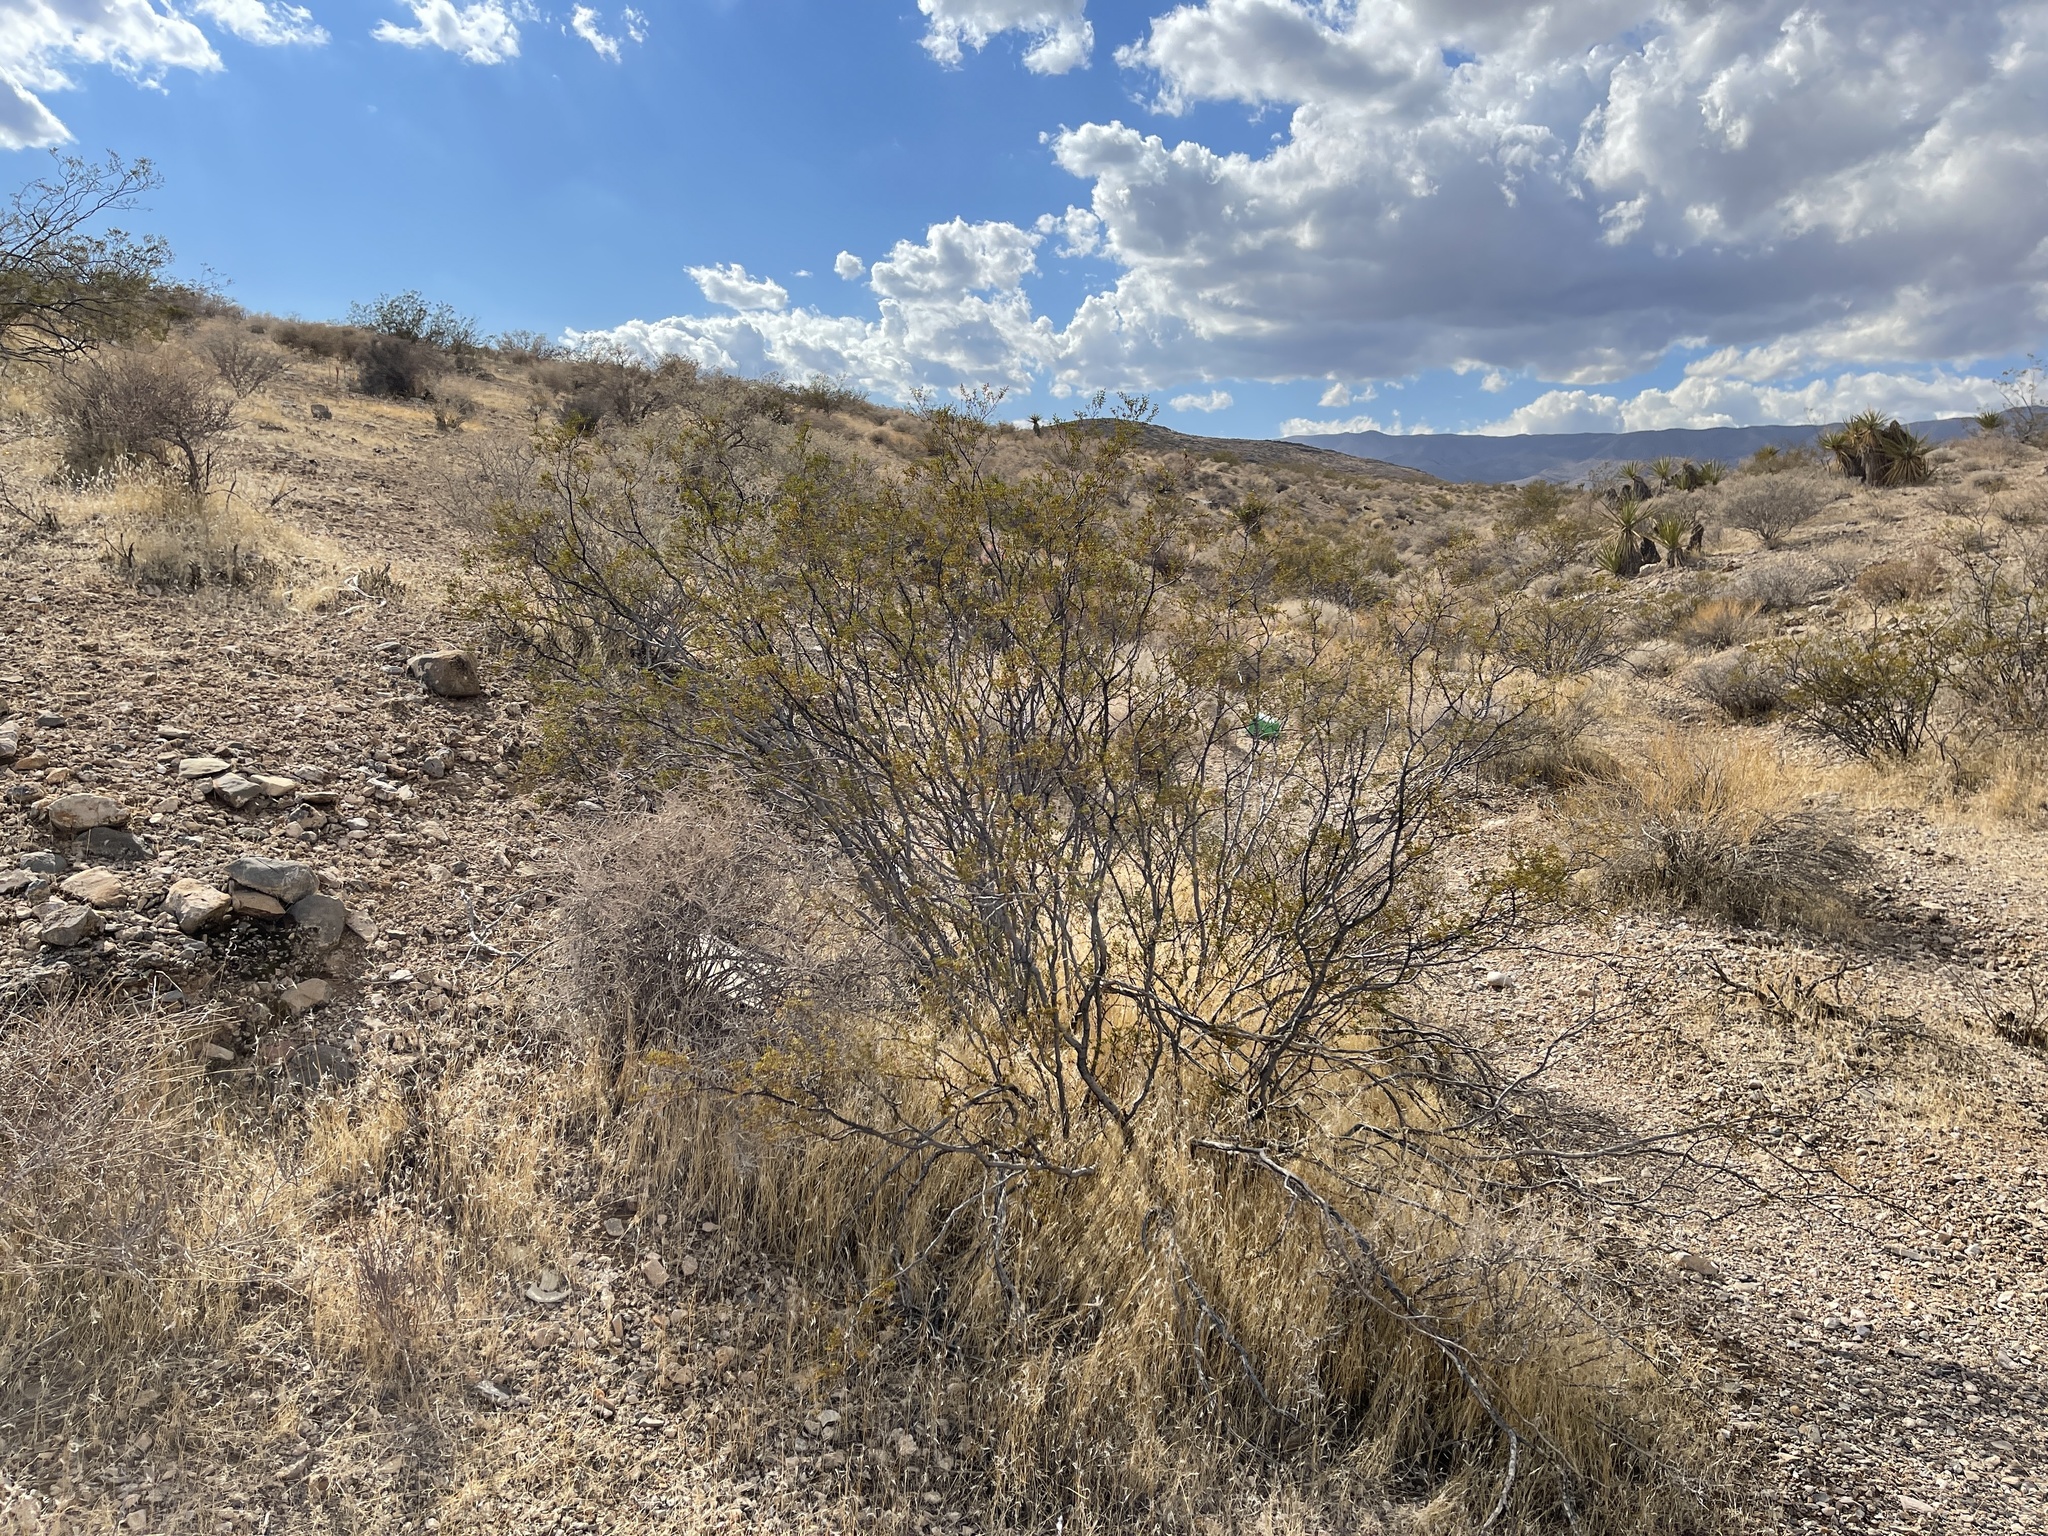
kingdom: Plantae
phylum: Tracheophyta
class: Magnoliopsida
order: Zygophyllales
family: Zygophyllaceae
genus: Larrea
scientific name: Larrea tridentata
